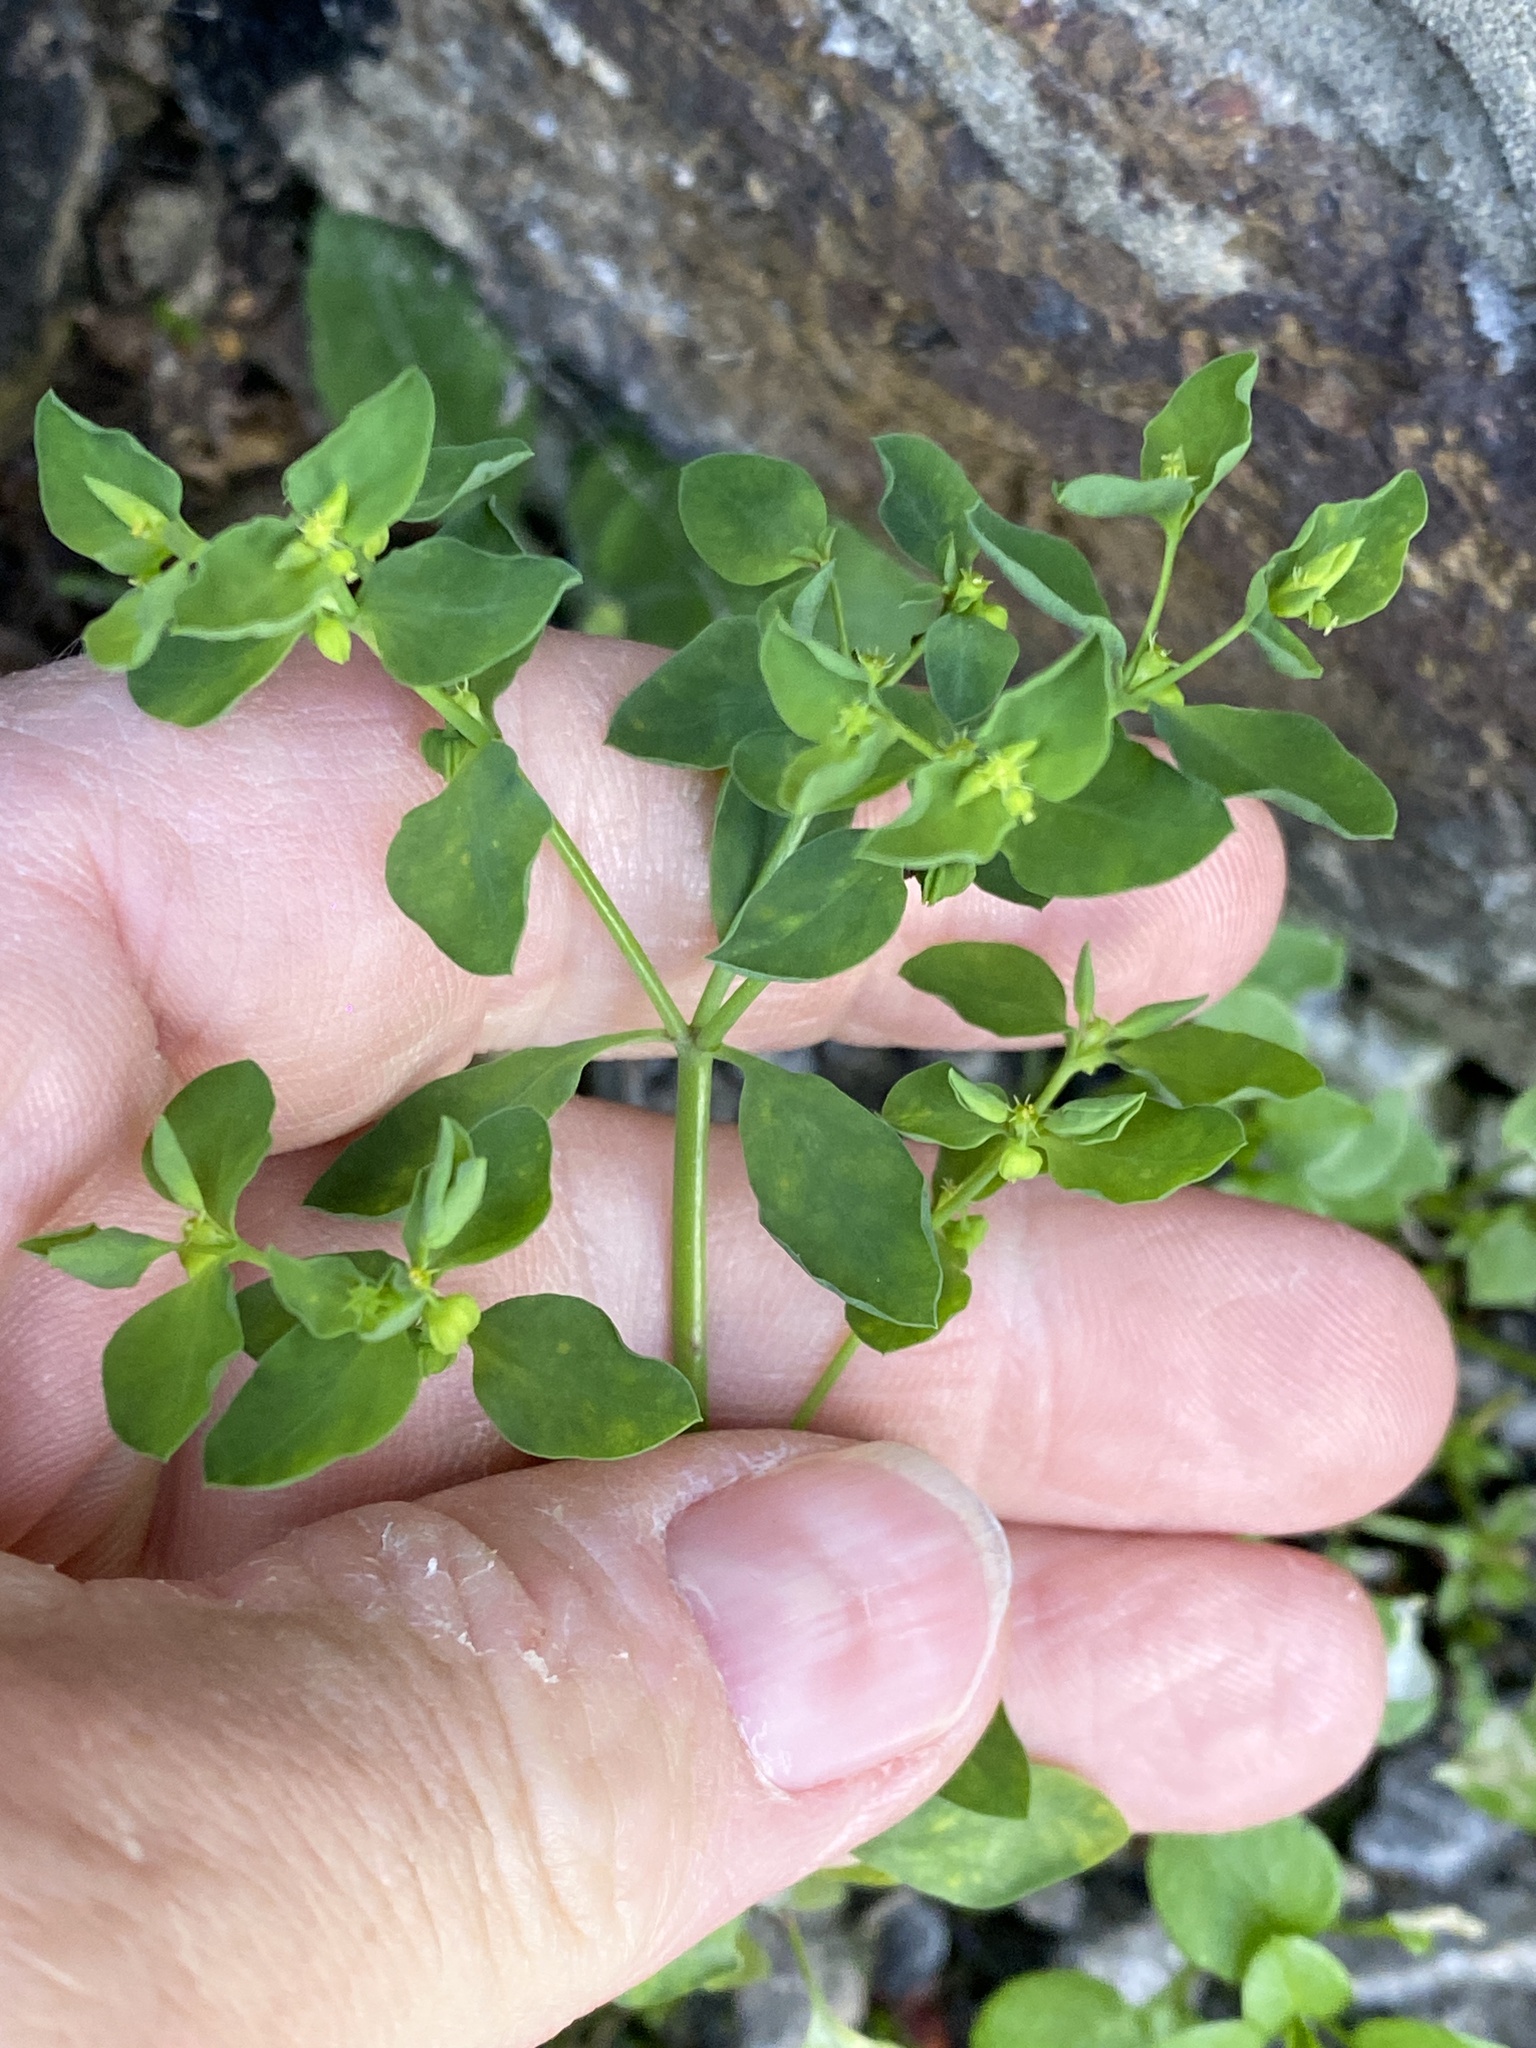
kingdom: Plantae
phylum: Tracheophyta
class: Magnoliopsida
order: Malpighiales
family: Euphorbiaceae
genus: Euphorbia
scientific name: Euphorbia peplus
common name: Petty spurge
